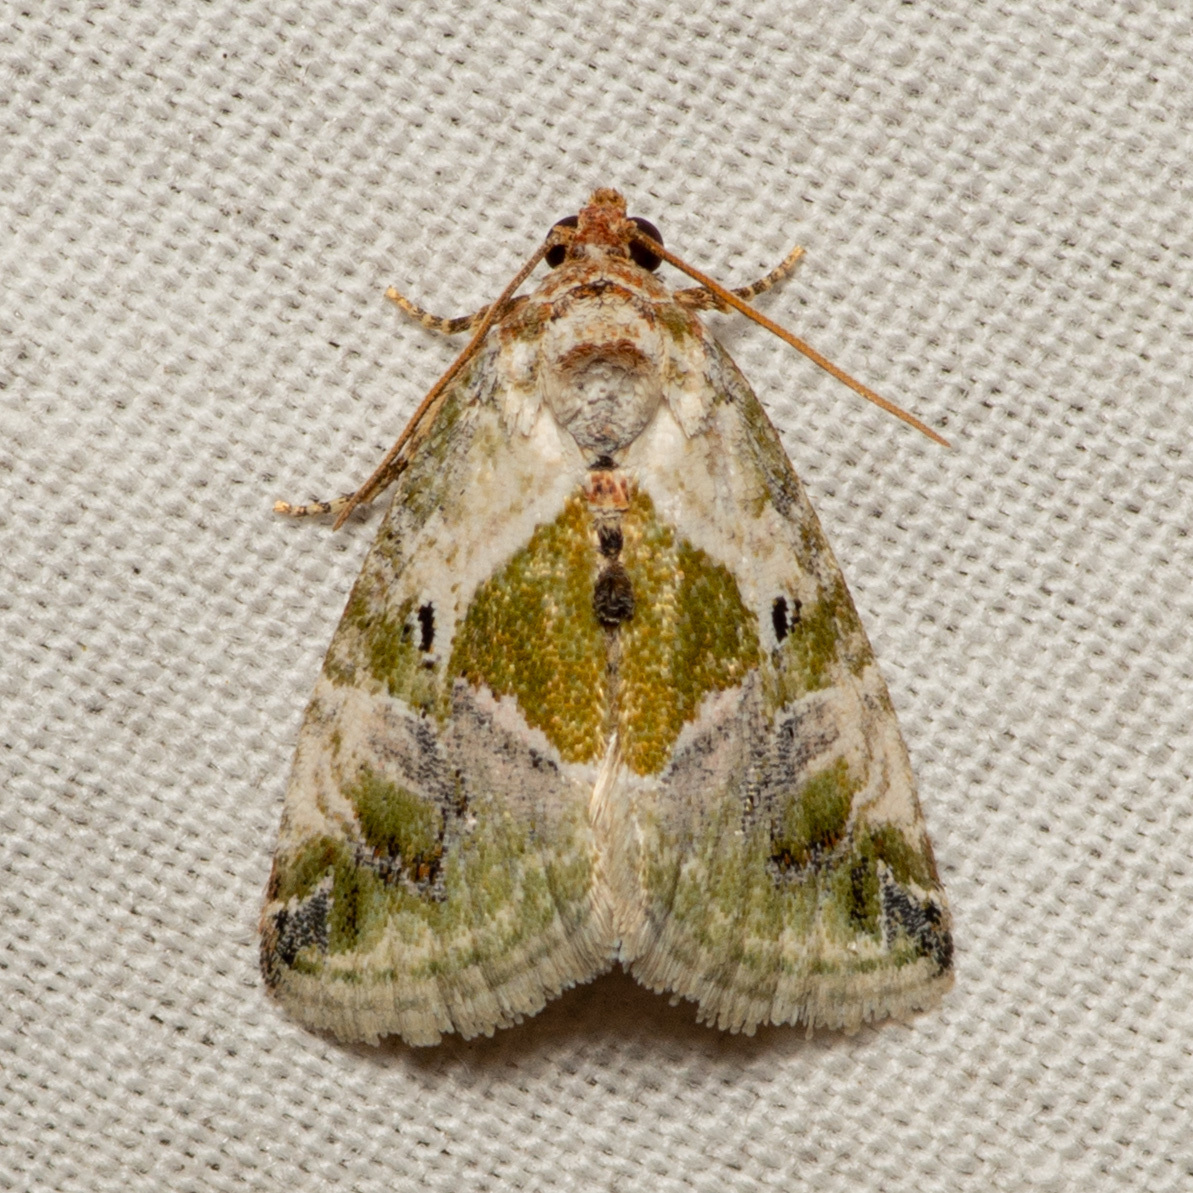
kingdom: Animalia
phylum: Arthropoda
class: Insecta
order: Lepidoptera
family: Noctuidae
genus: Maliattha
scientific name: Maliattha synochitis
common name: Black-dotted glyph
